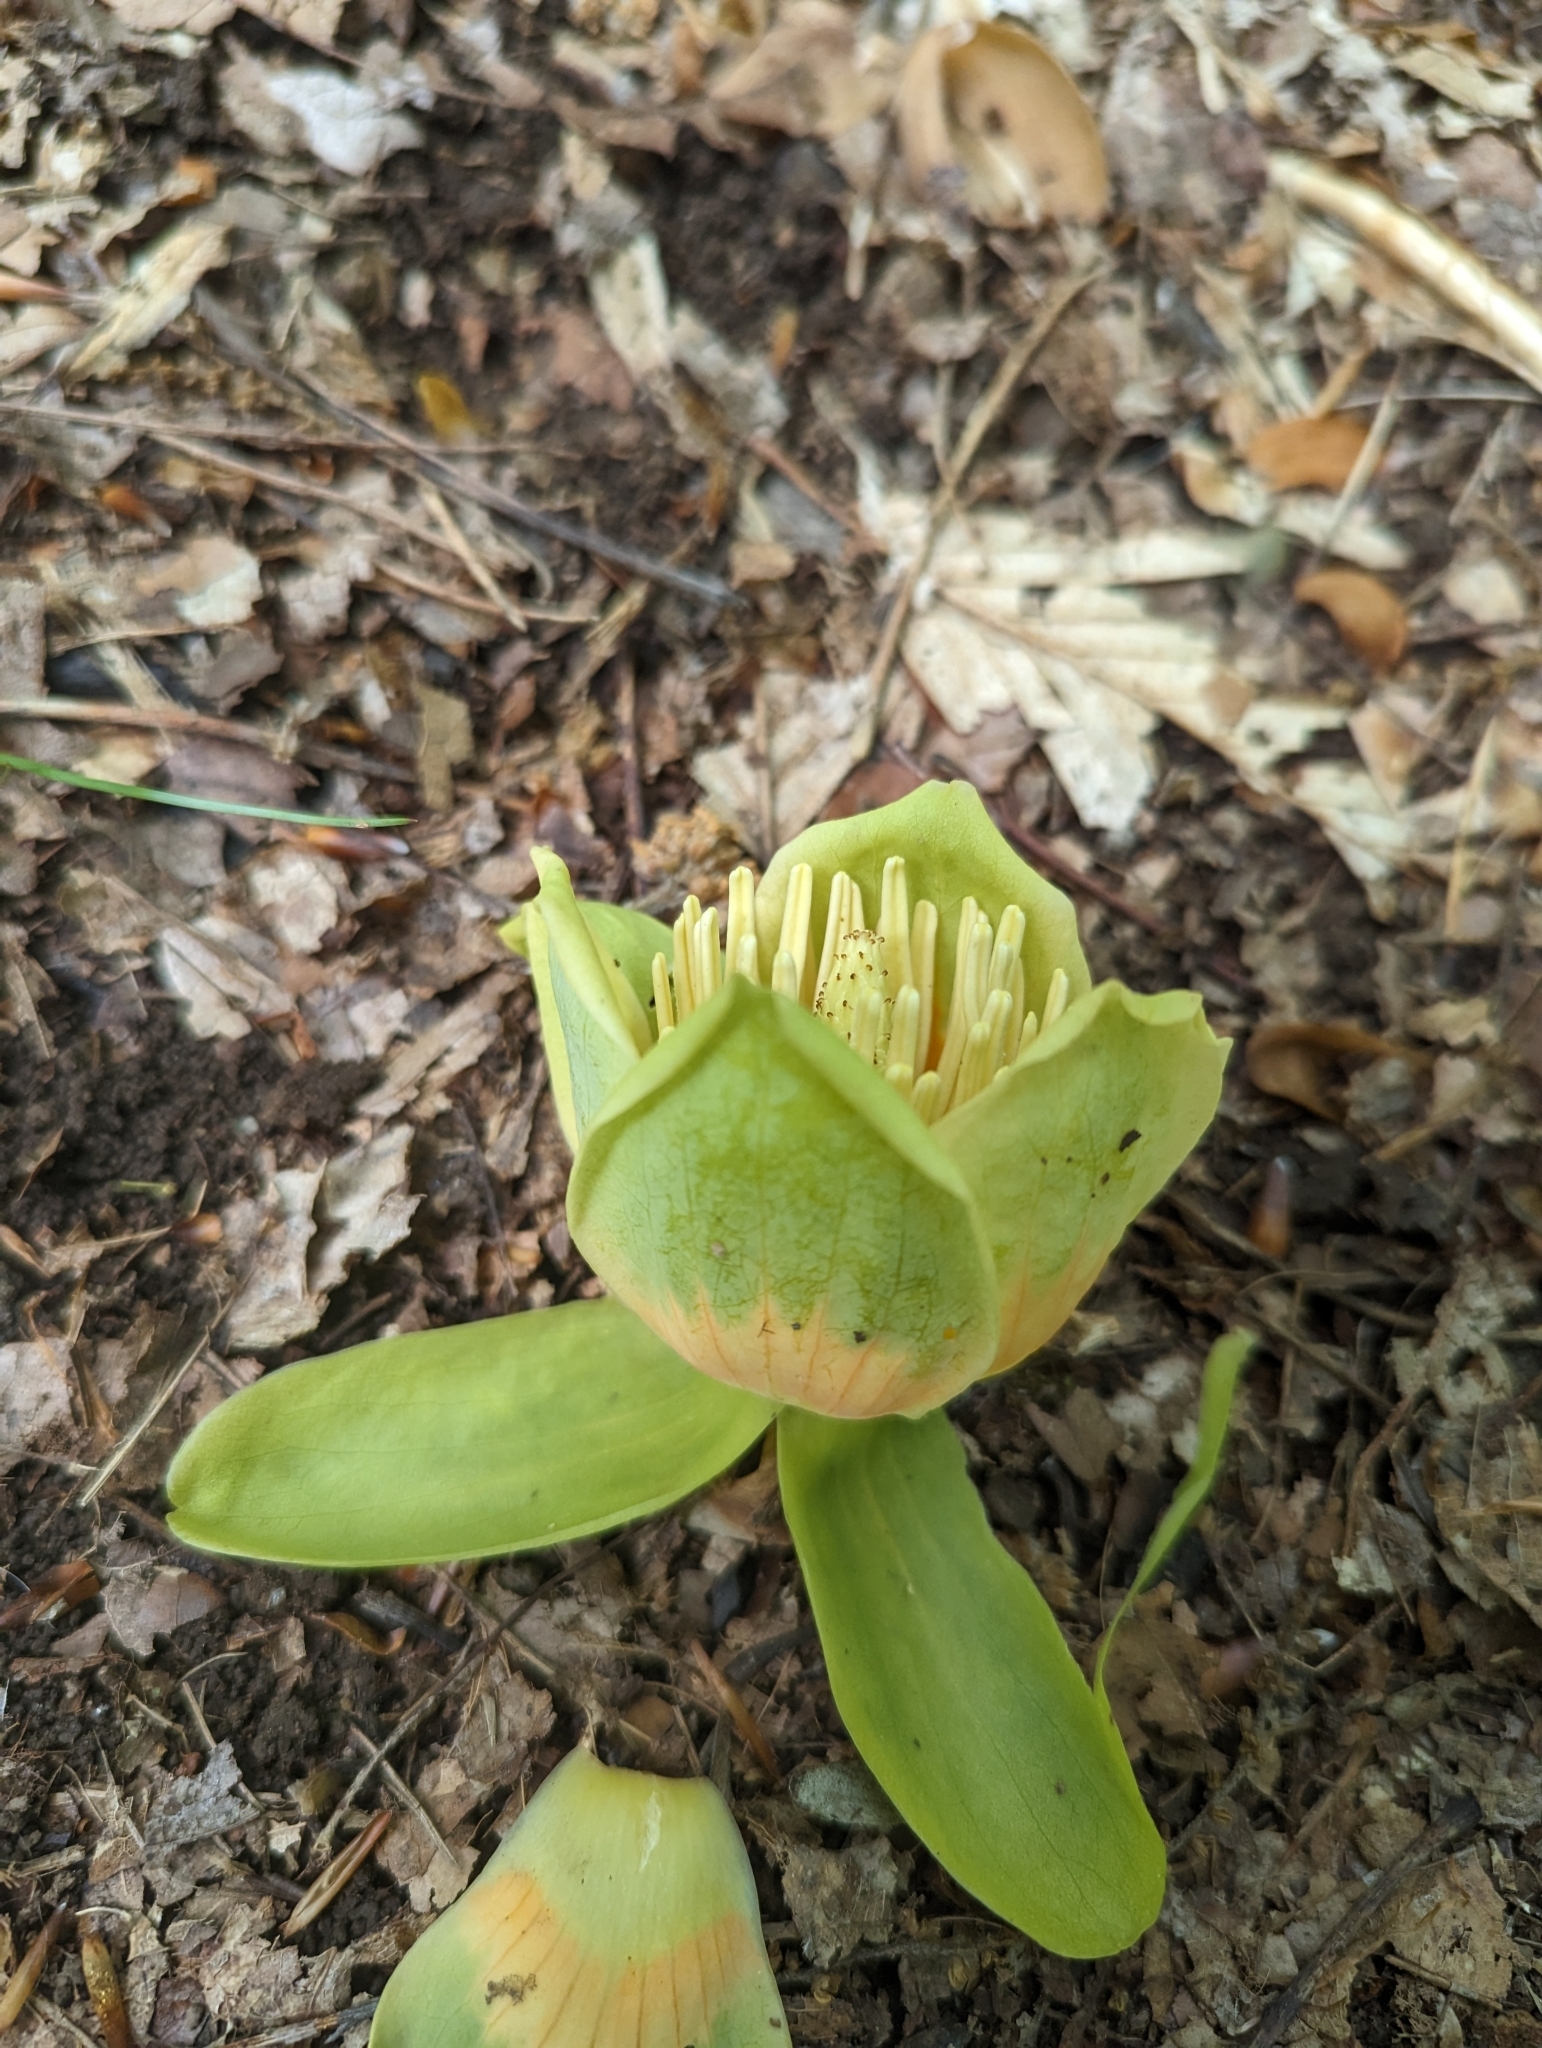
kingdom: Plantae
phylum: Tracheophyta
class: Magnoliopsida
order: Magnoliales
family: Magnoliaceae
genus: Liriodendron
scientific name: Liriodendron tulipifera
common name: Tulip tree
